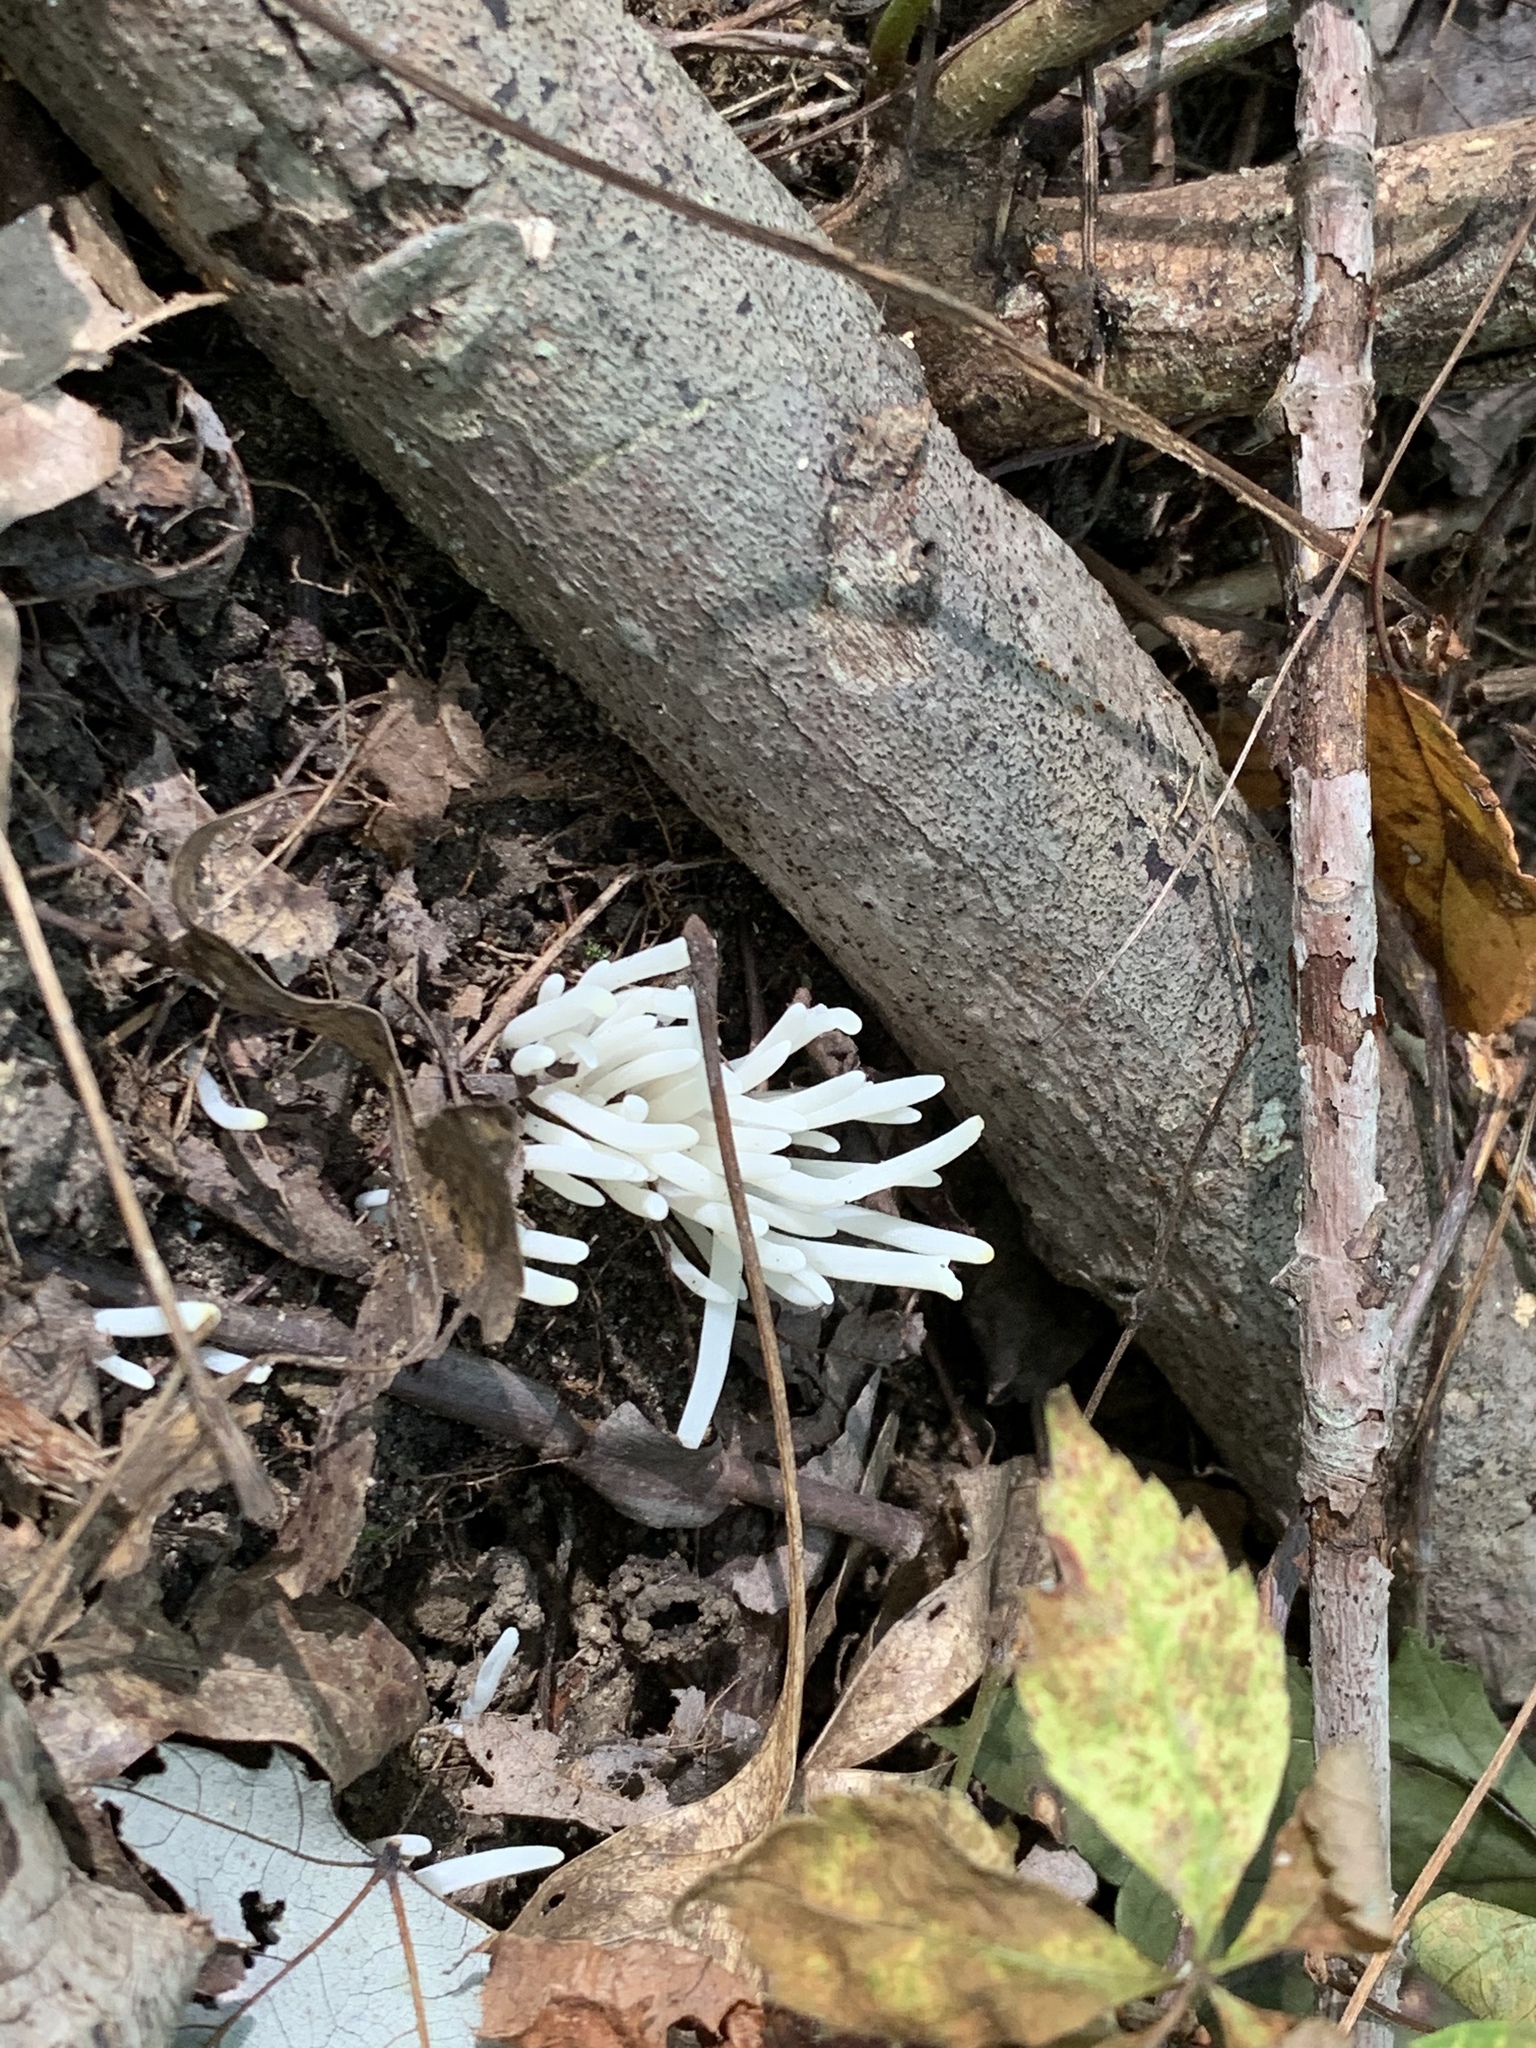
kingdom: Fungi
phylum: Basidiomycota
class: Agaricomycetes
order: Agaricales
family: Clavariaceae
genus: Clavaria
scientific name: Clavaria fragilis
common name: White spindles
